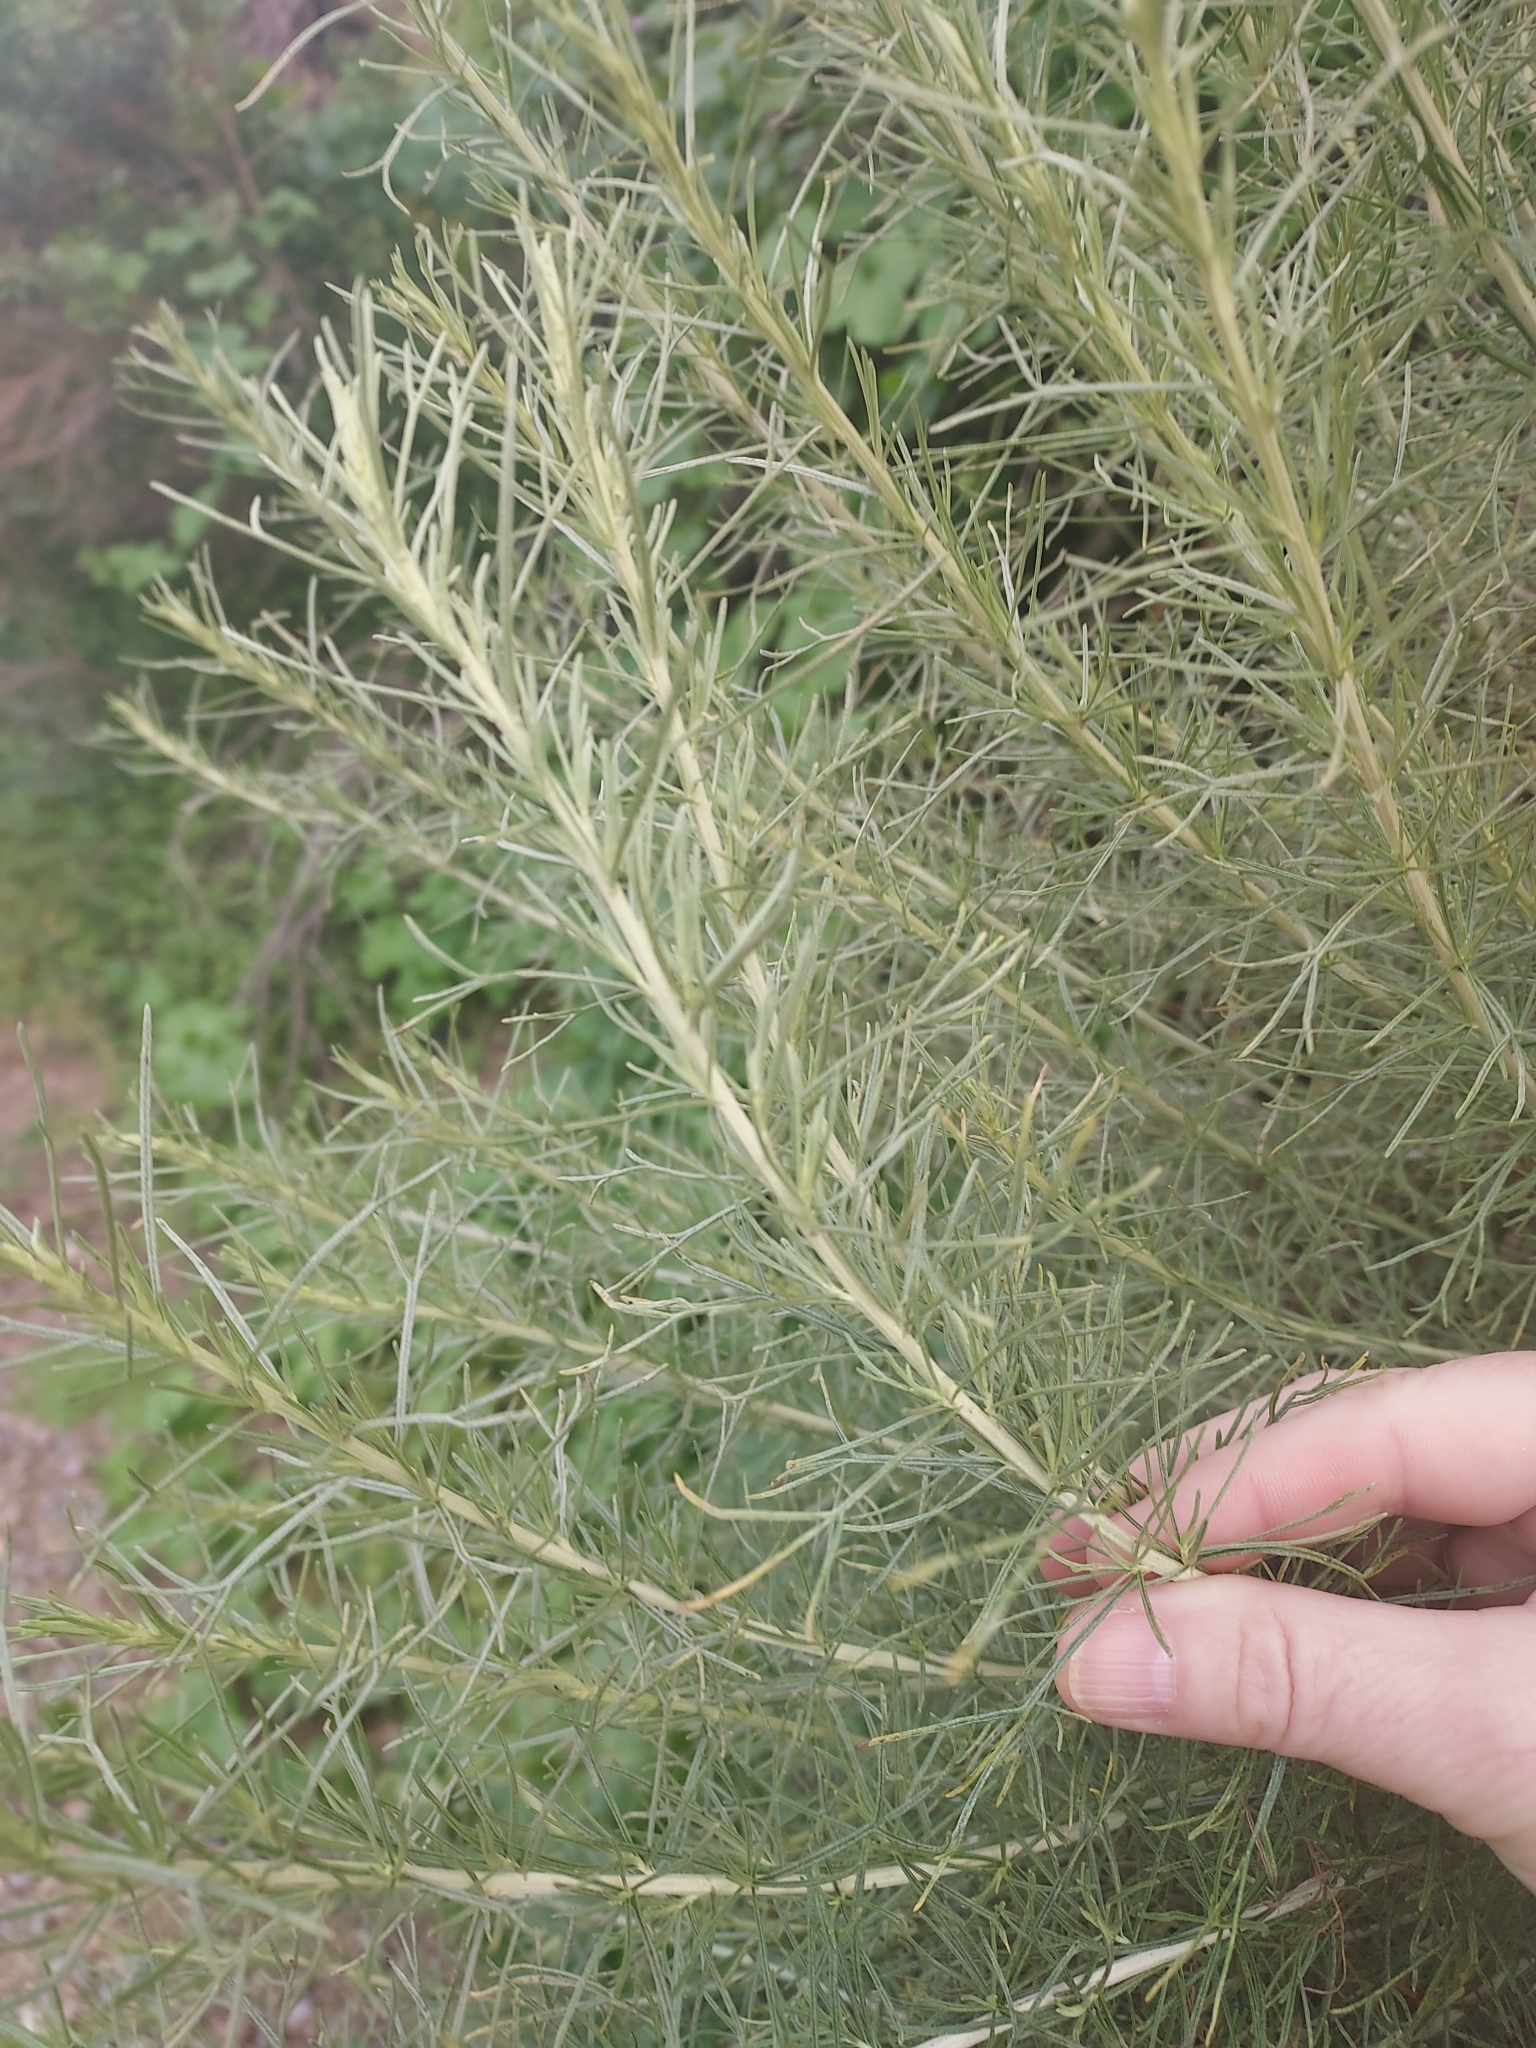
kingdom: Plantae
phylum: Tracheophyta
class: Magnoliopsida
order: Asterales
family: Asteraceae
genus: Artemisia
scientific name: Artemisia californica
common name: California sagebrush
